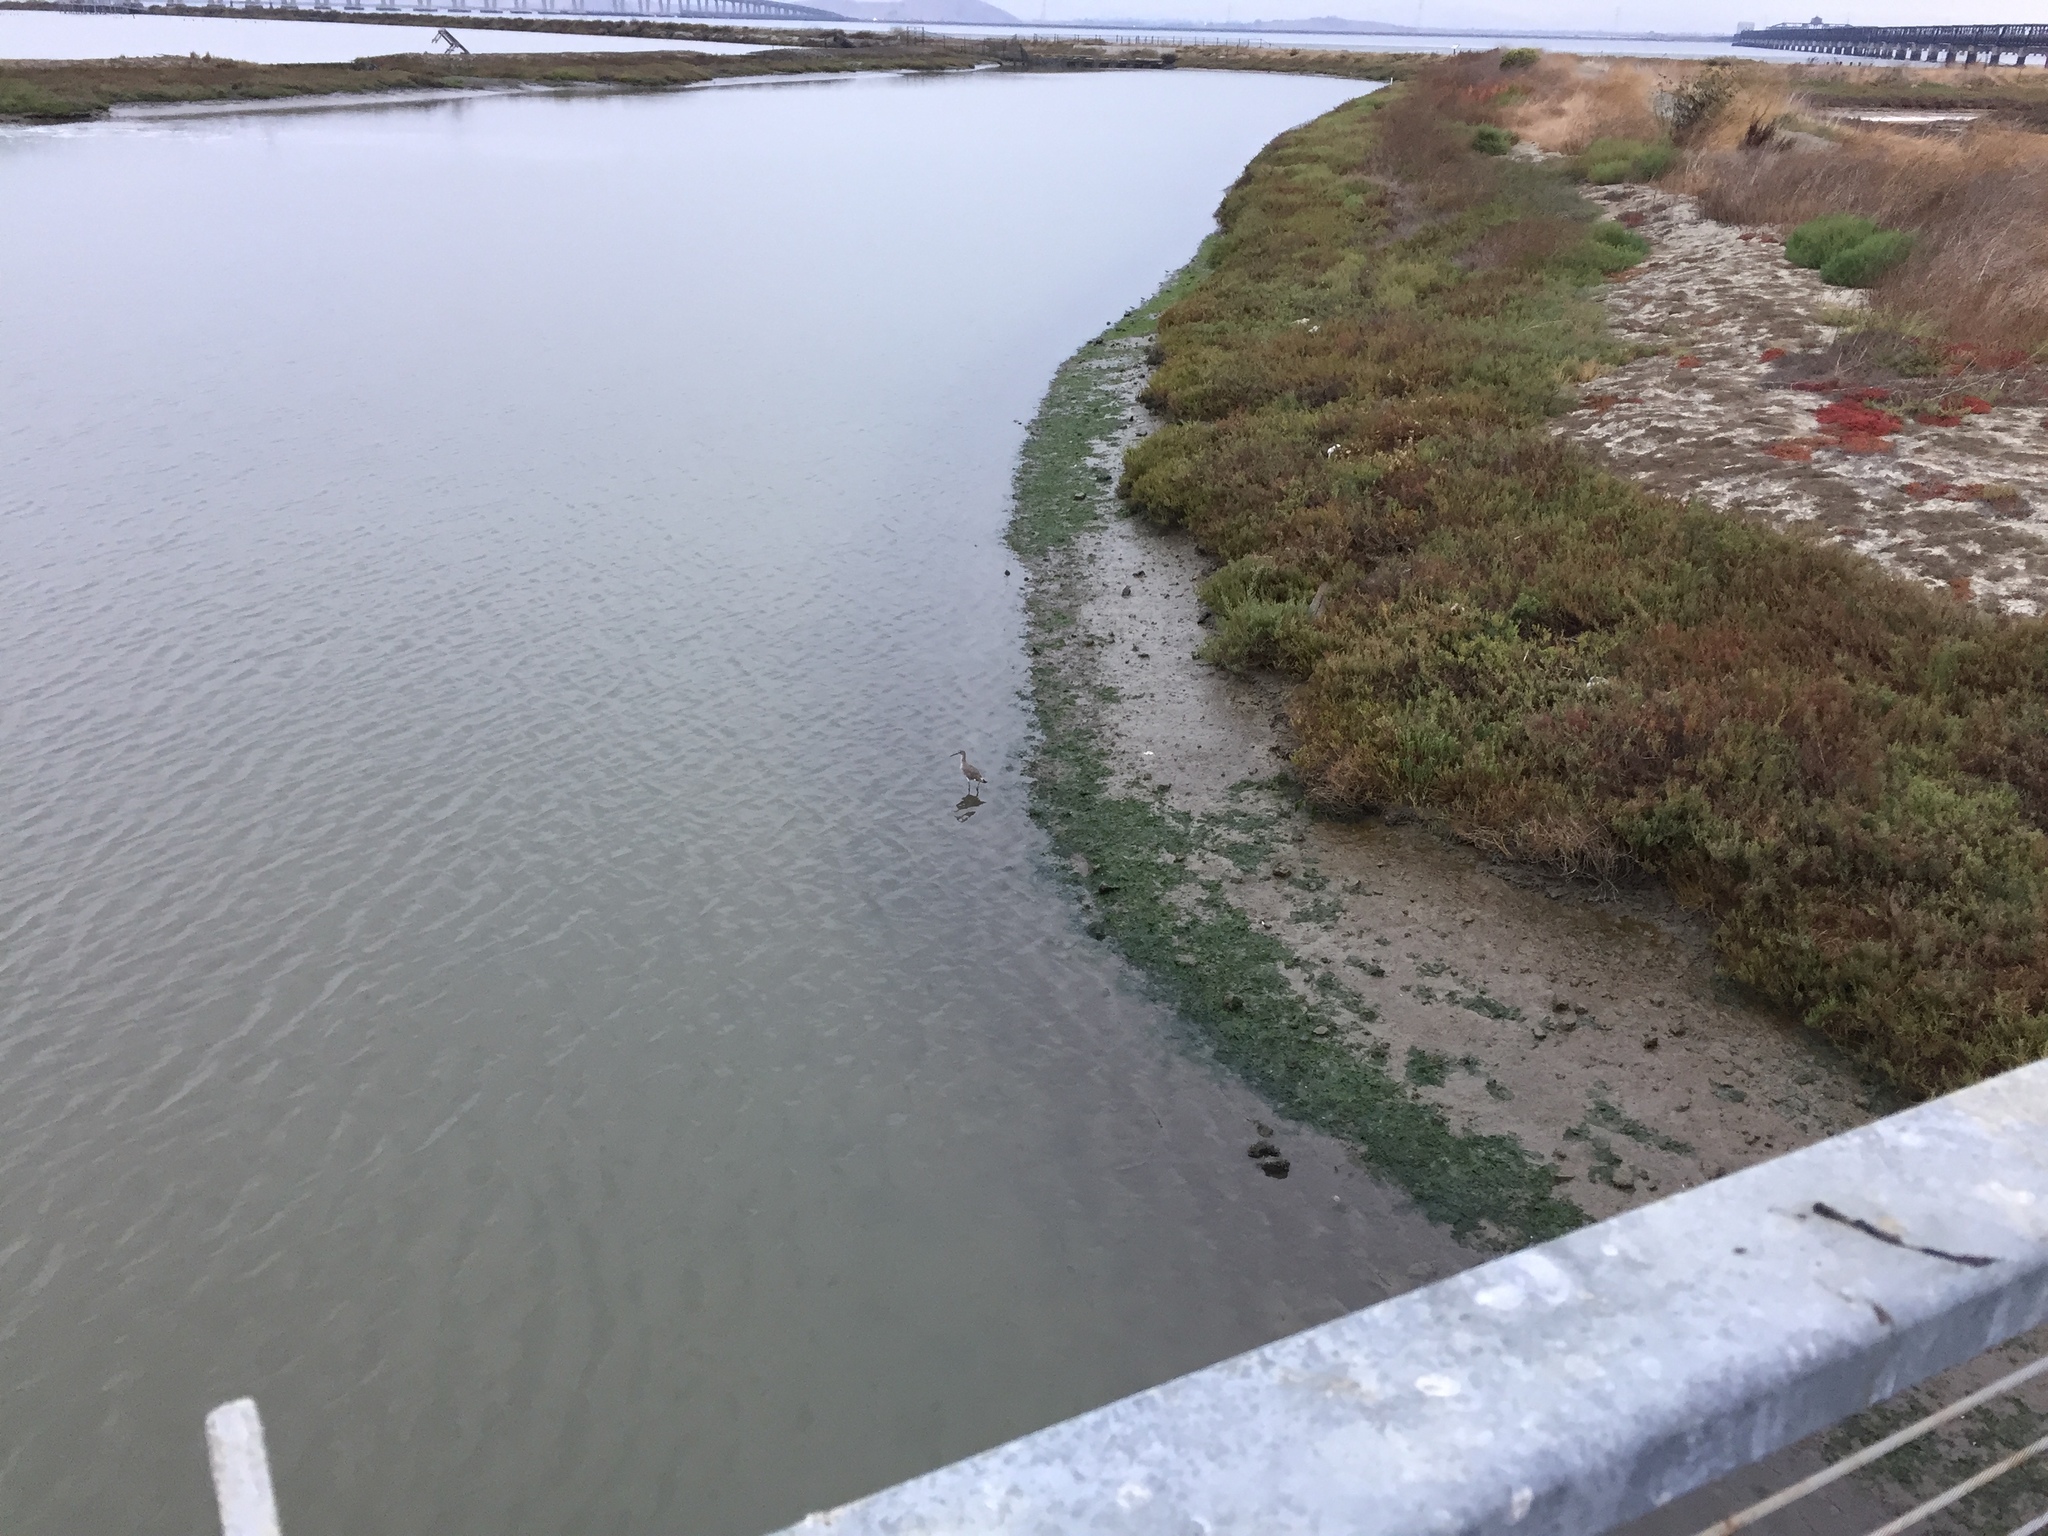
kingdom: Animalia
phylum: Chordata
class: Aves
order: Charadriiformes
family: Scolopacidae
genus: Tringa
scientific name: Tringa semipalmata
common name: Willet
